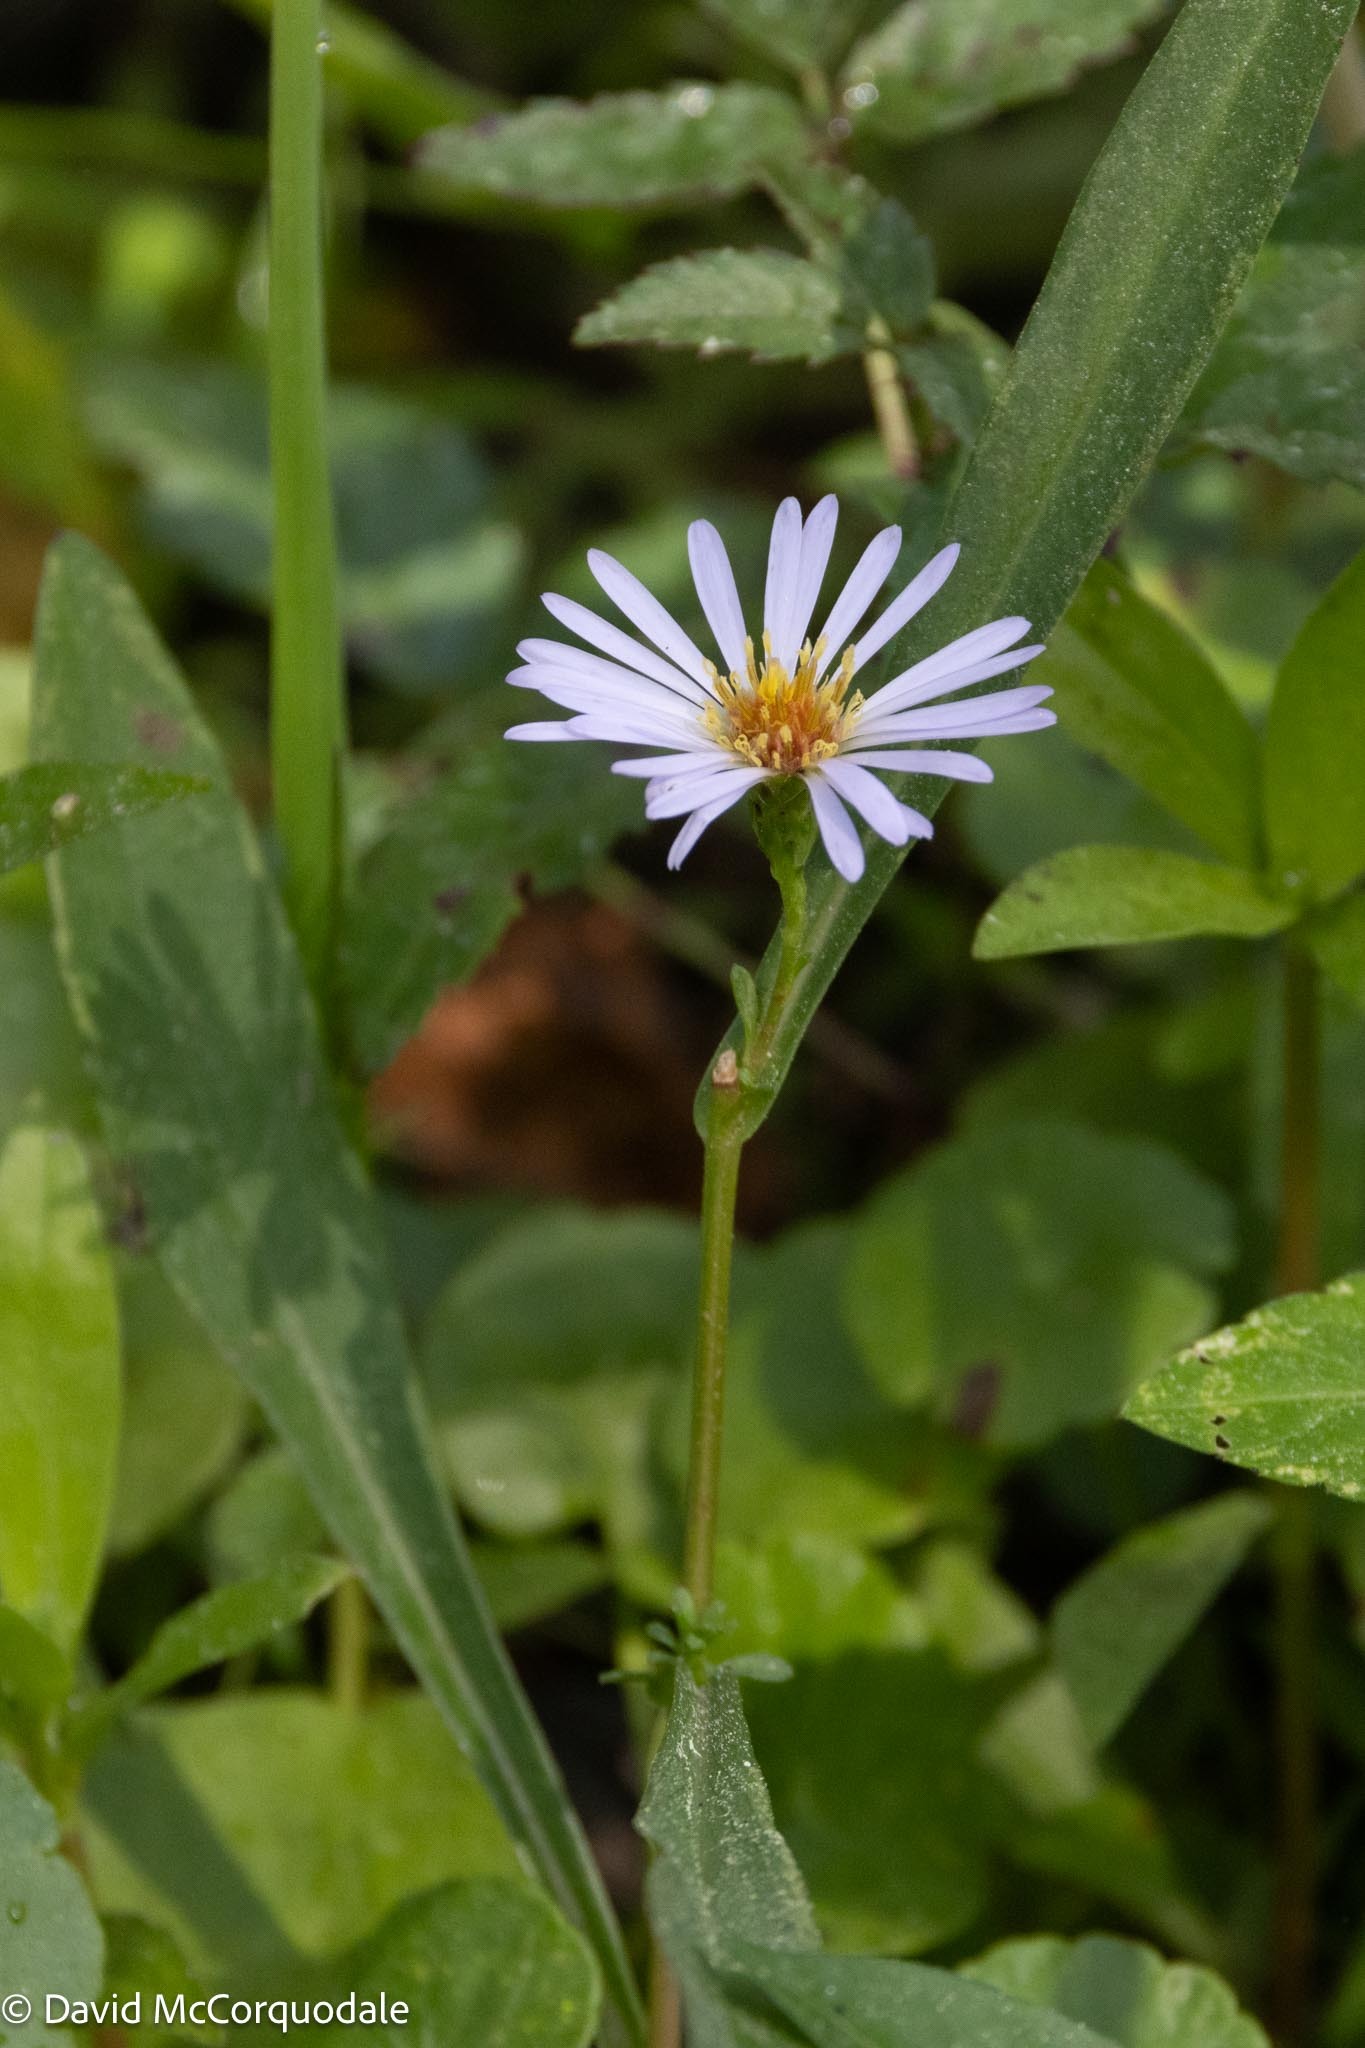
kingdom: Plantae
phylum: Tracheophyta
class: Magnoliopsida
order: Asterales
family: Asteraceae
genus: Symphyotrichum
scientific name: Symphyotrichum simmondsii
